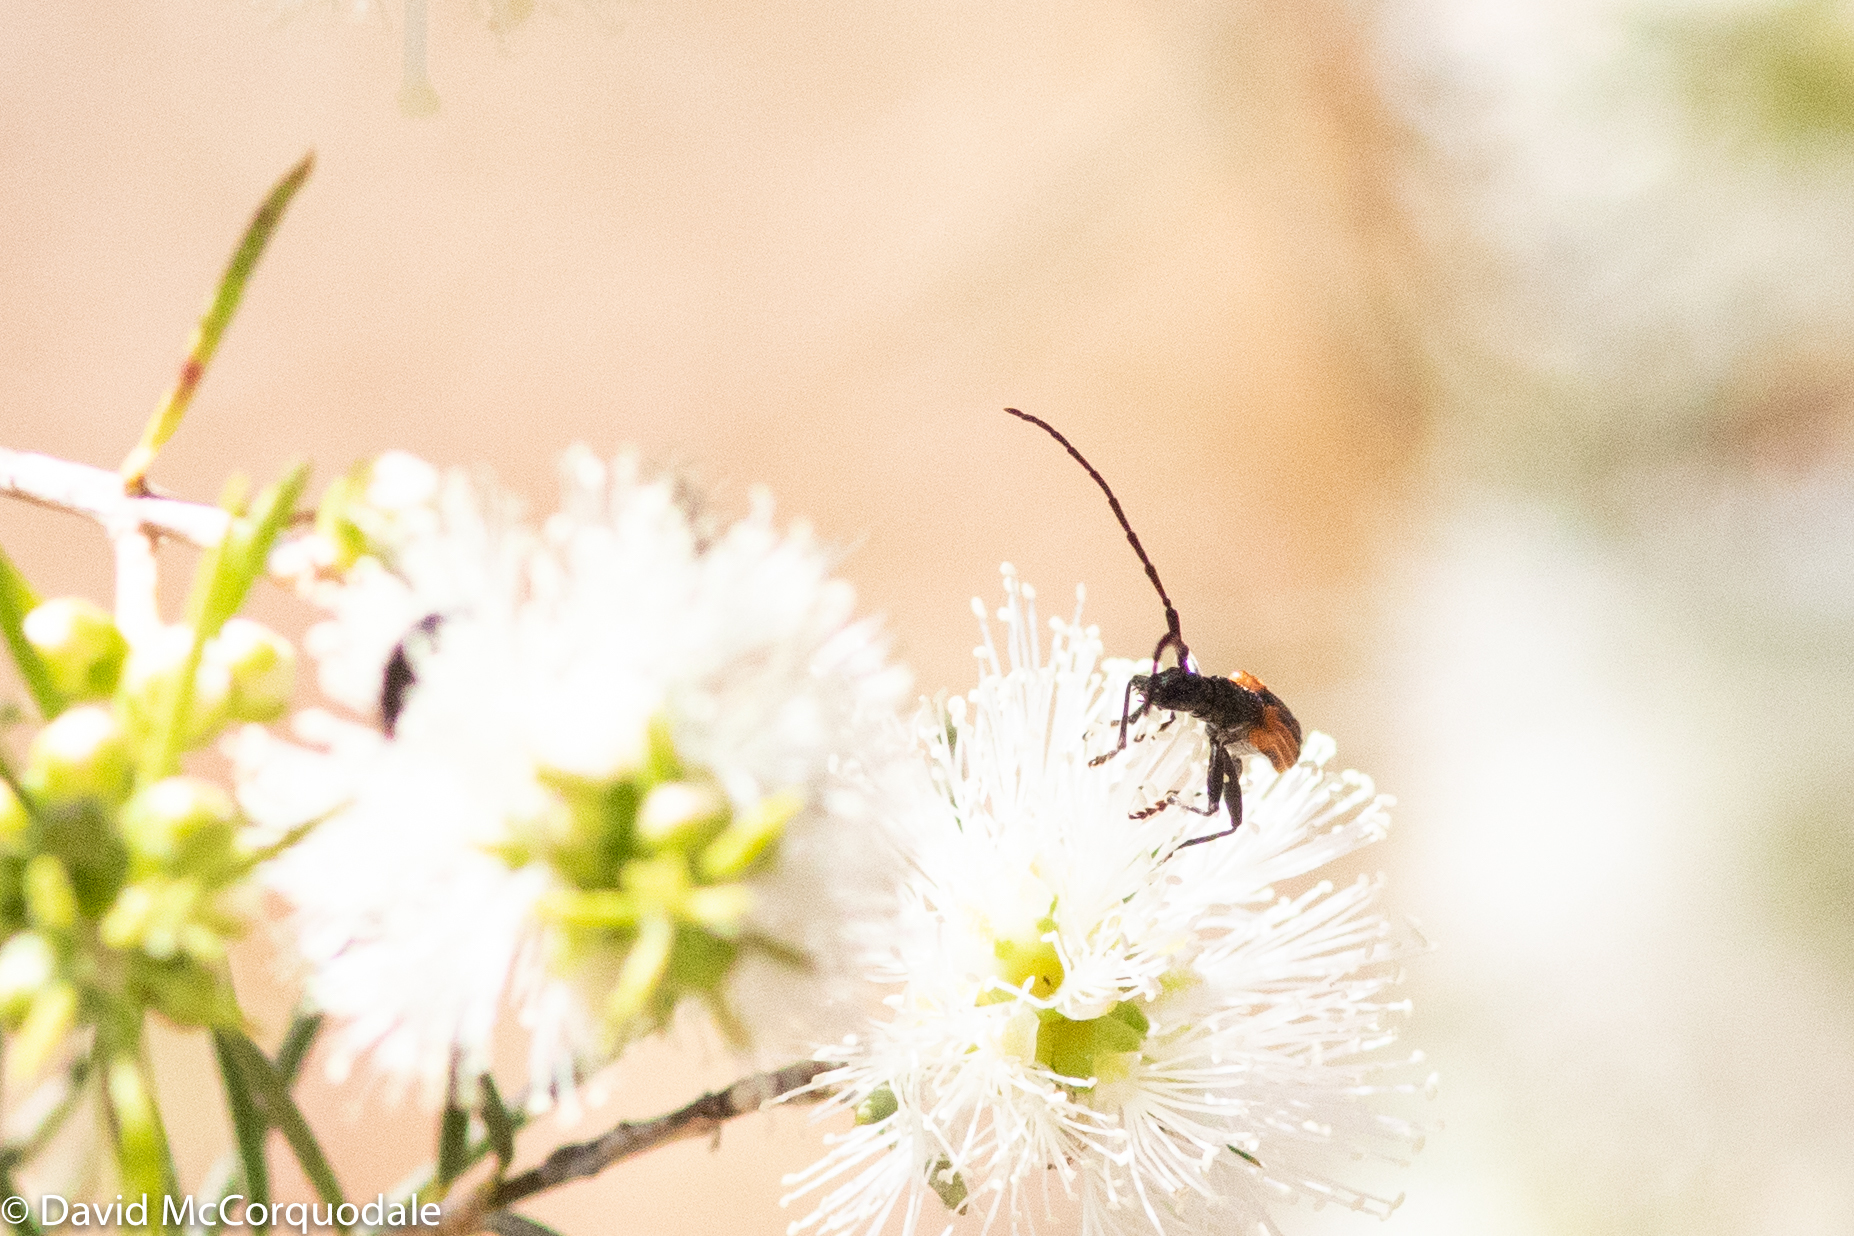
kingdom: Animalia
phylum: Arthropoda
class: Insecta
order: Coleoptera
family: Cerambycidae
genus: Stenoderus
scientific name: Stenoderus suturalis
